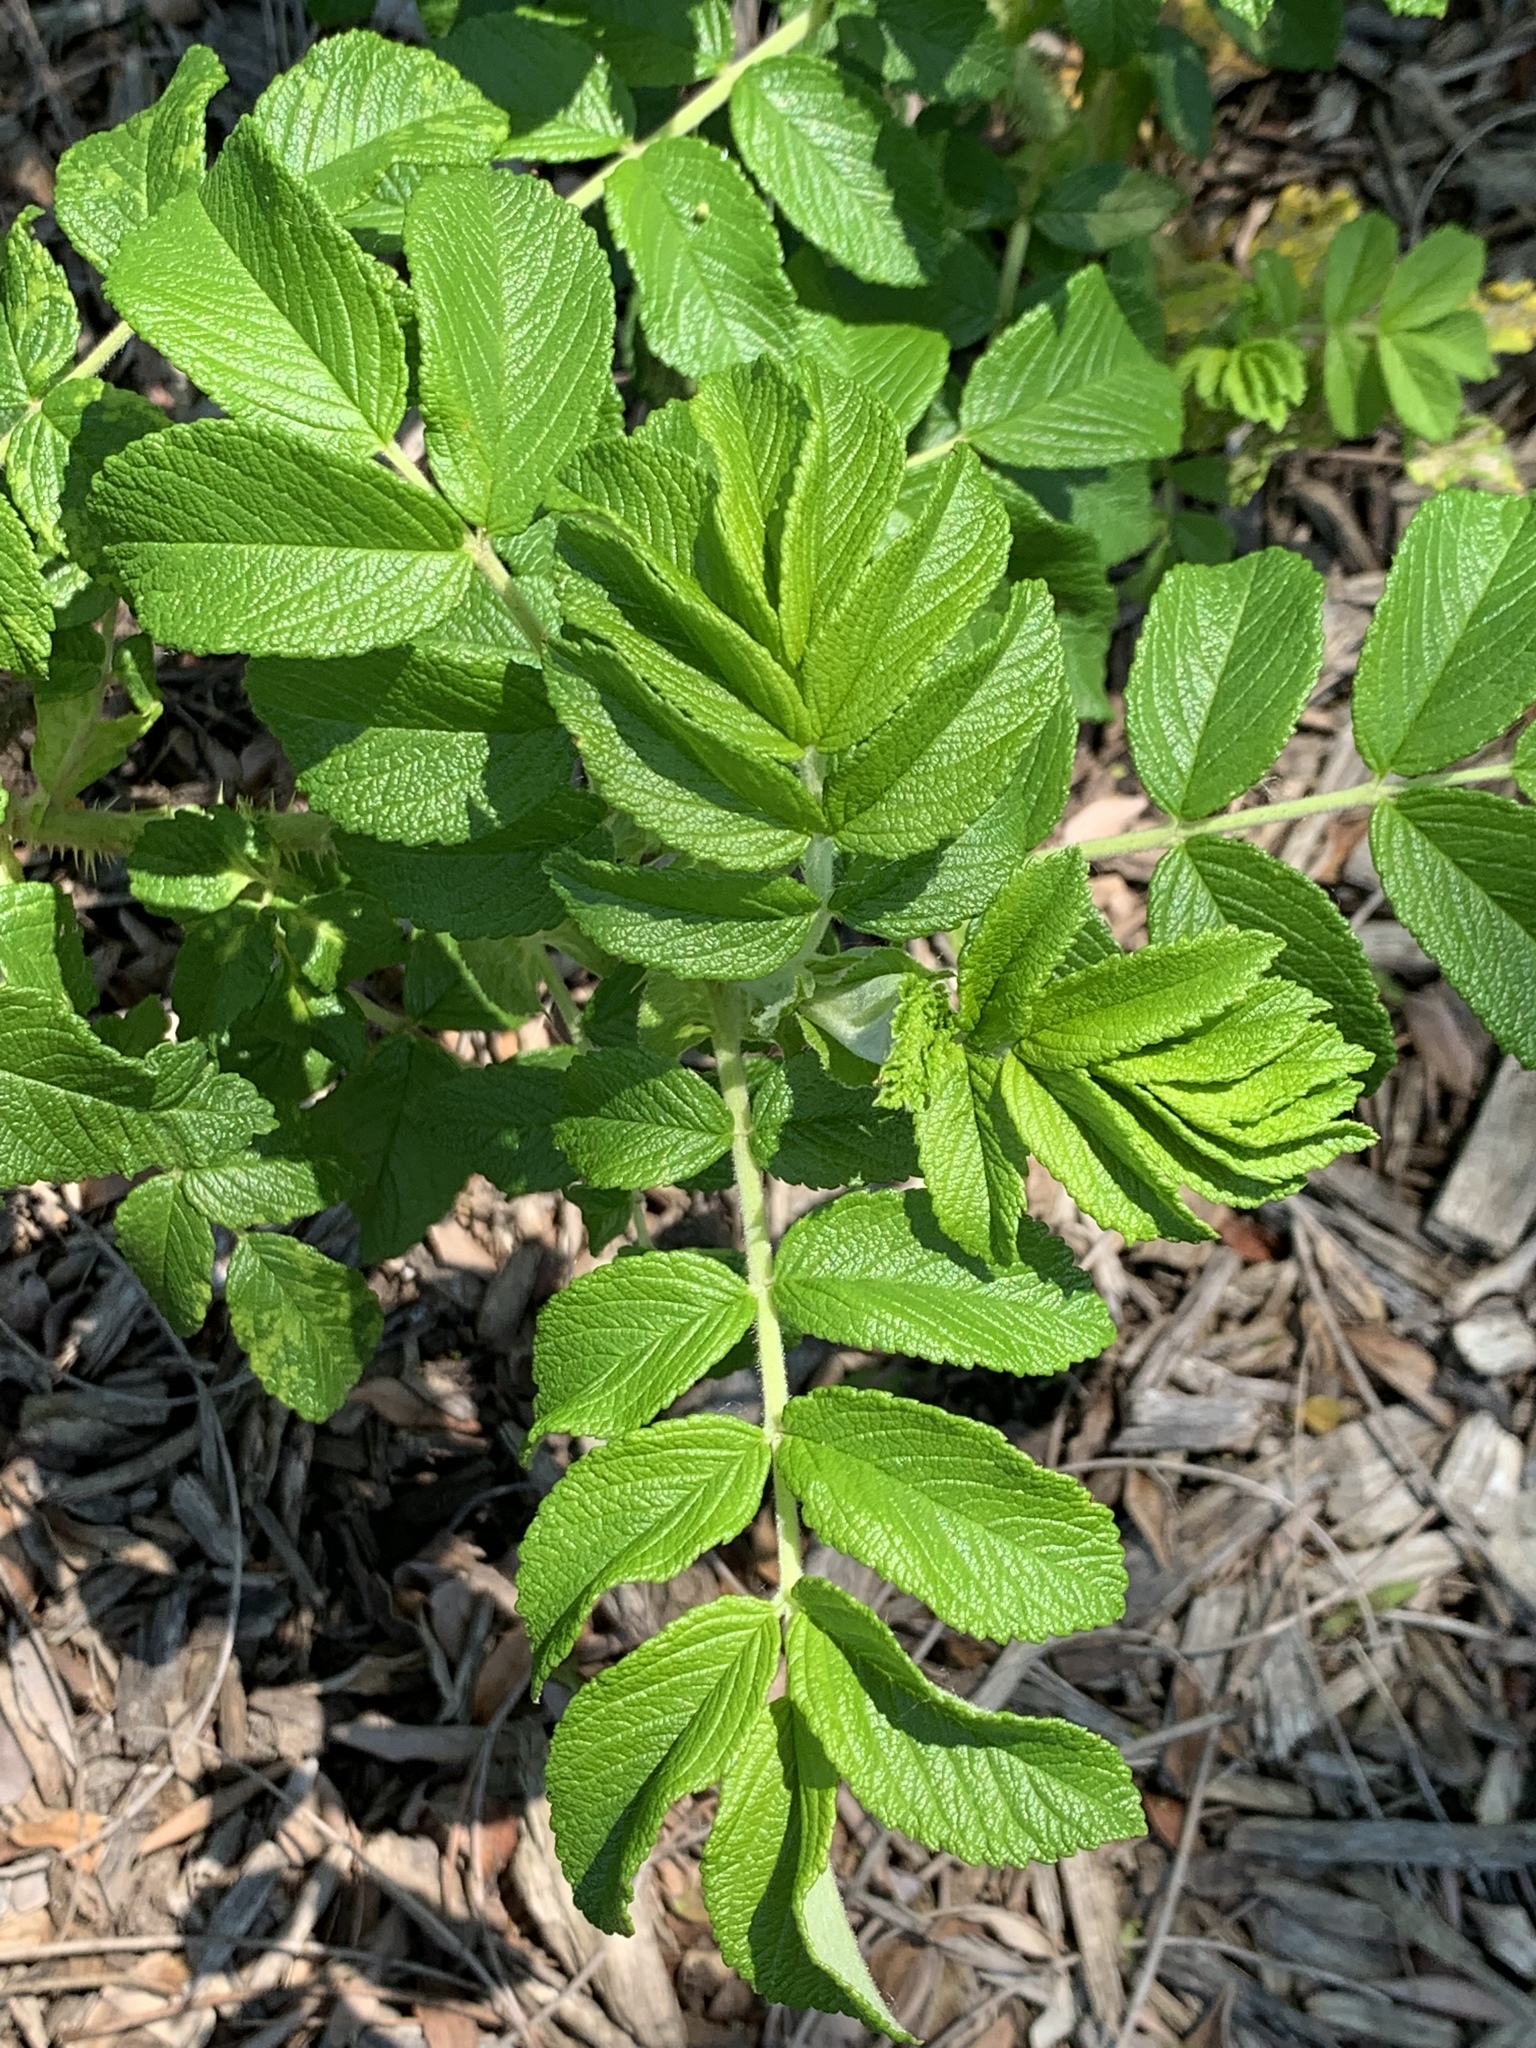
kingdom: Plantae
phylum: Tracheophyta
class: Magnoliopsida
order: Rosales
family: Rosaceae
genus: Rosa
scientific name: Rosa rugosa
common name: Japanese rose
